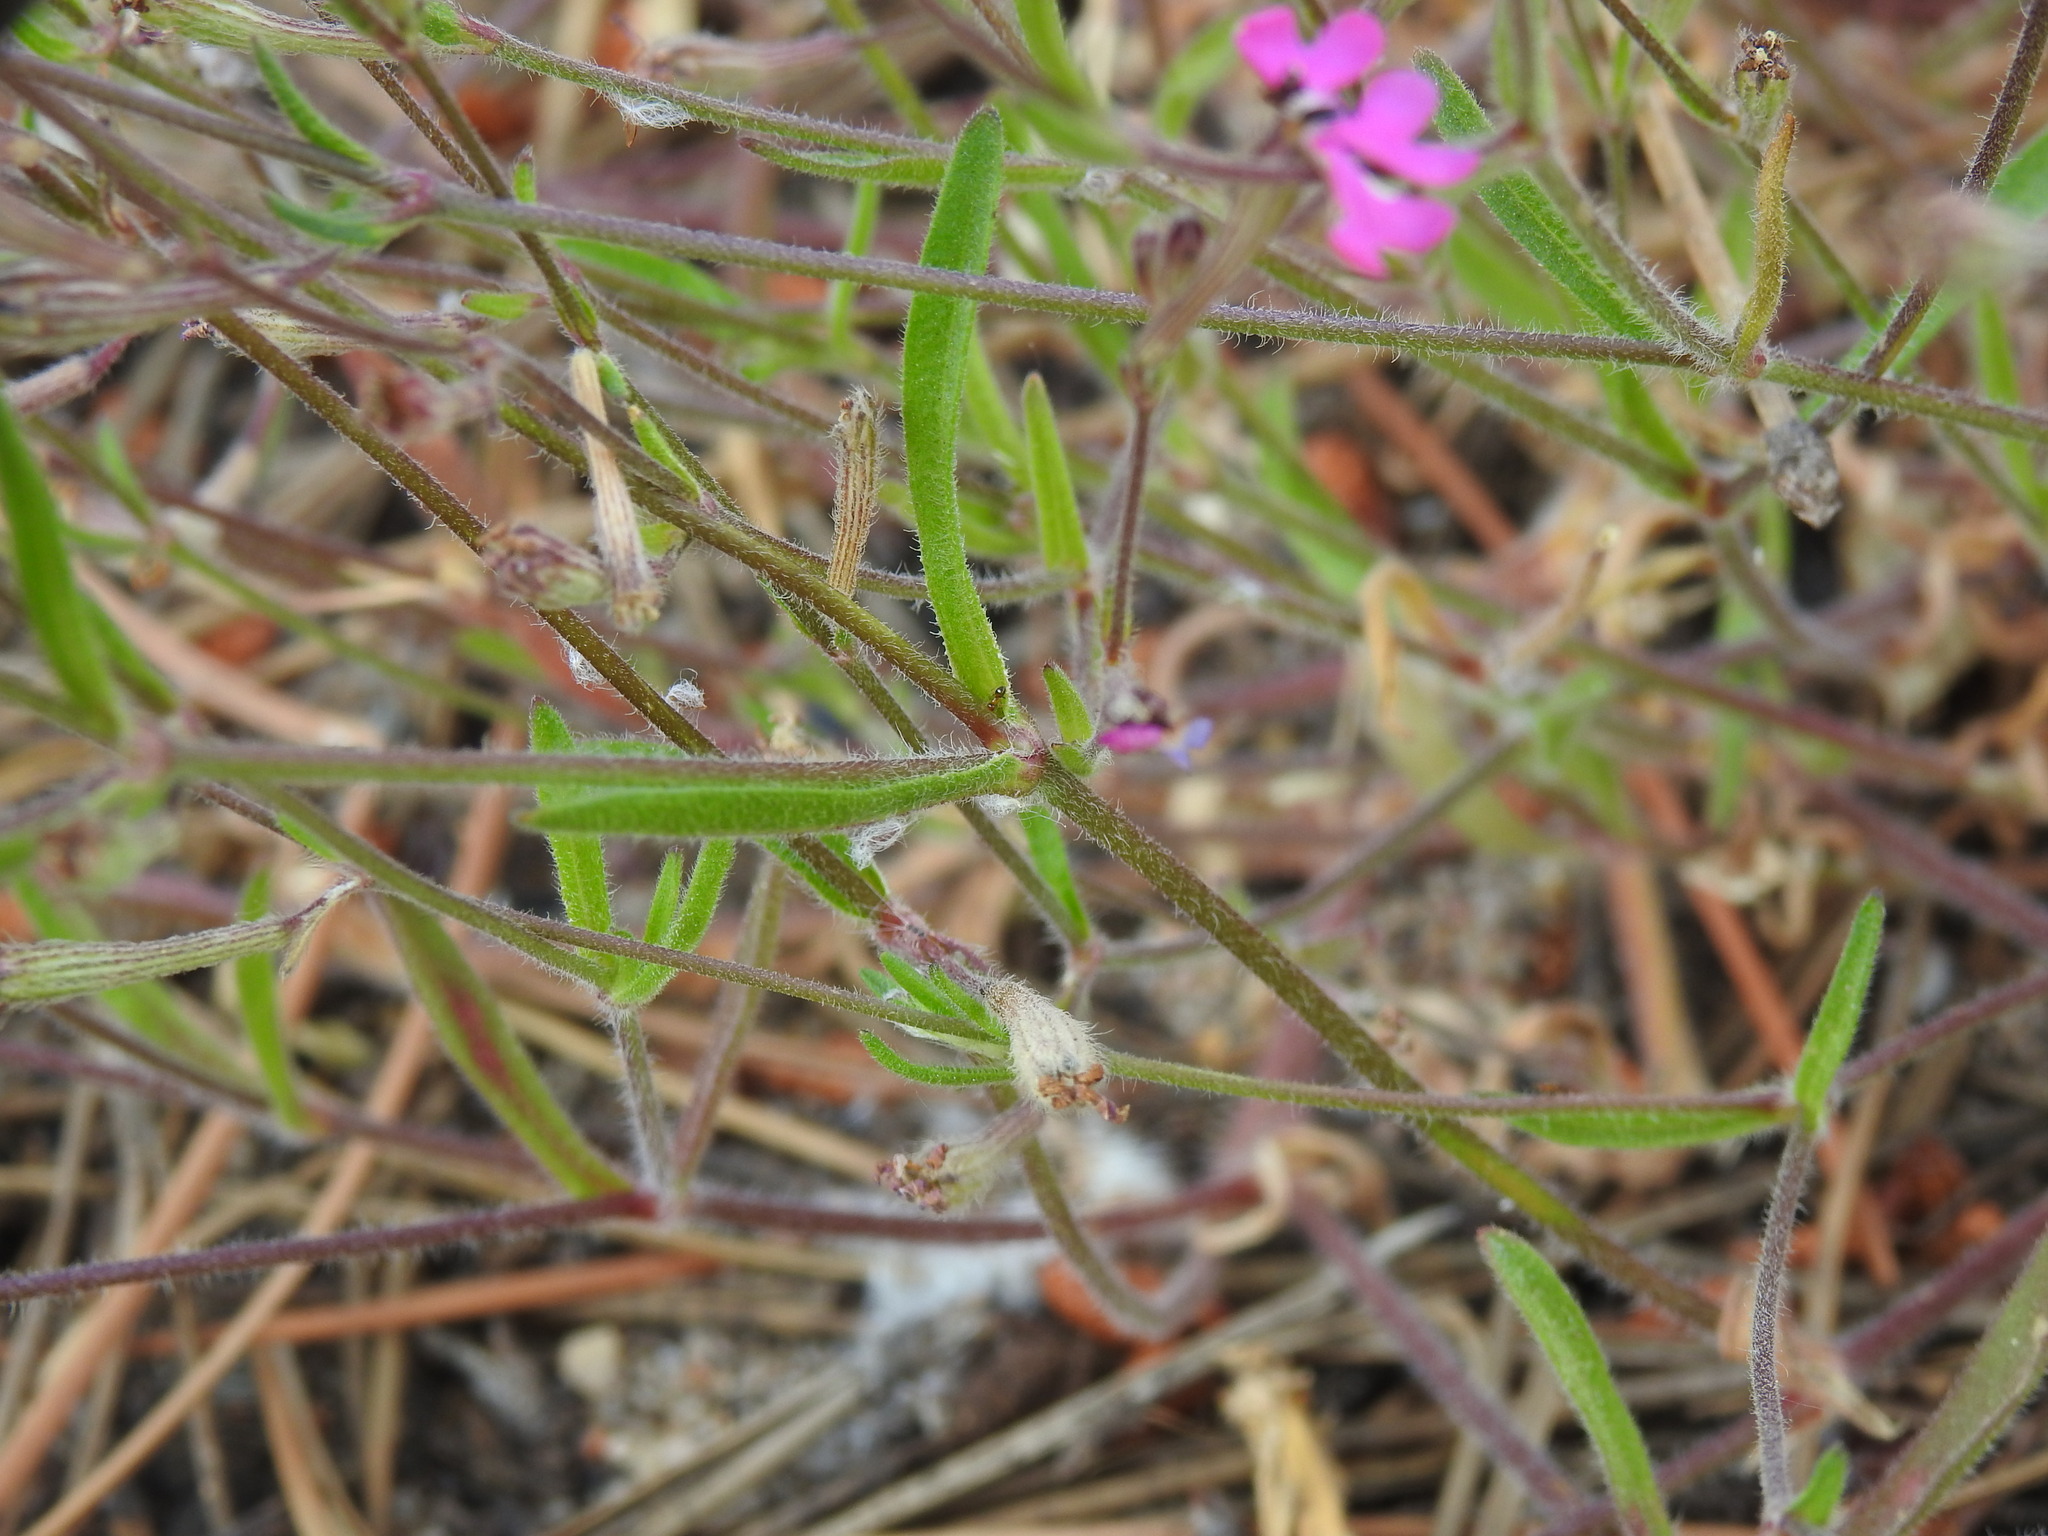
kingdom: Plantae
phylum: Tracheophyta
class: Magnoliopsida
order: Caryophyllales
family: Caryophyllaceae
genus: Silene
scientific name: Silene scabriflora
